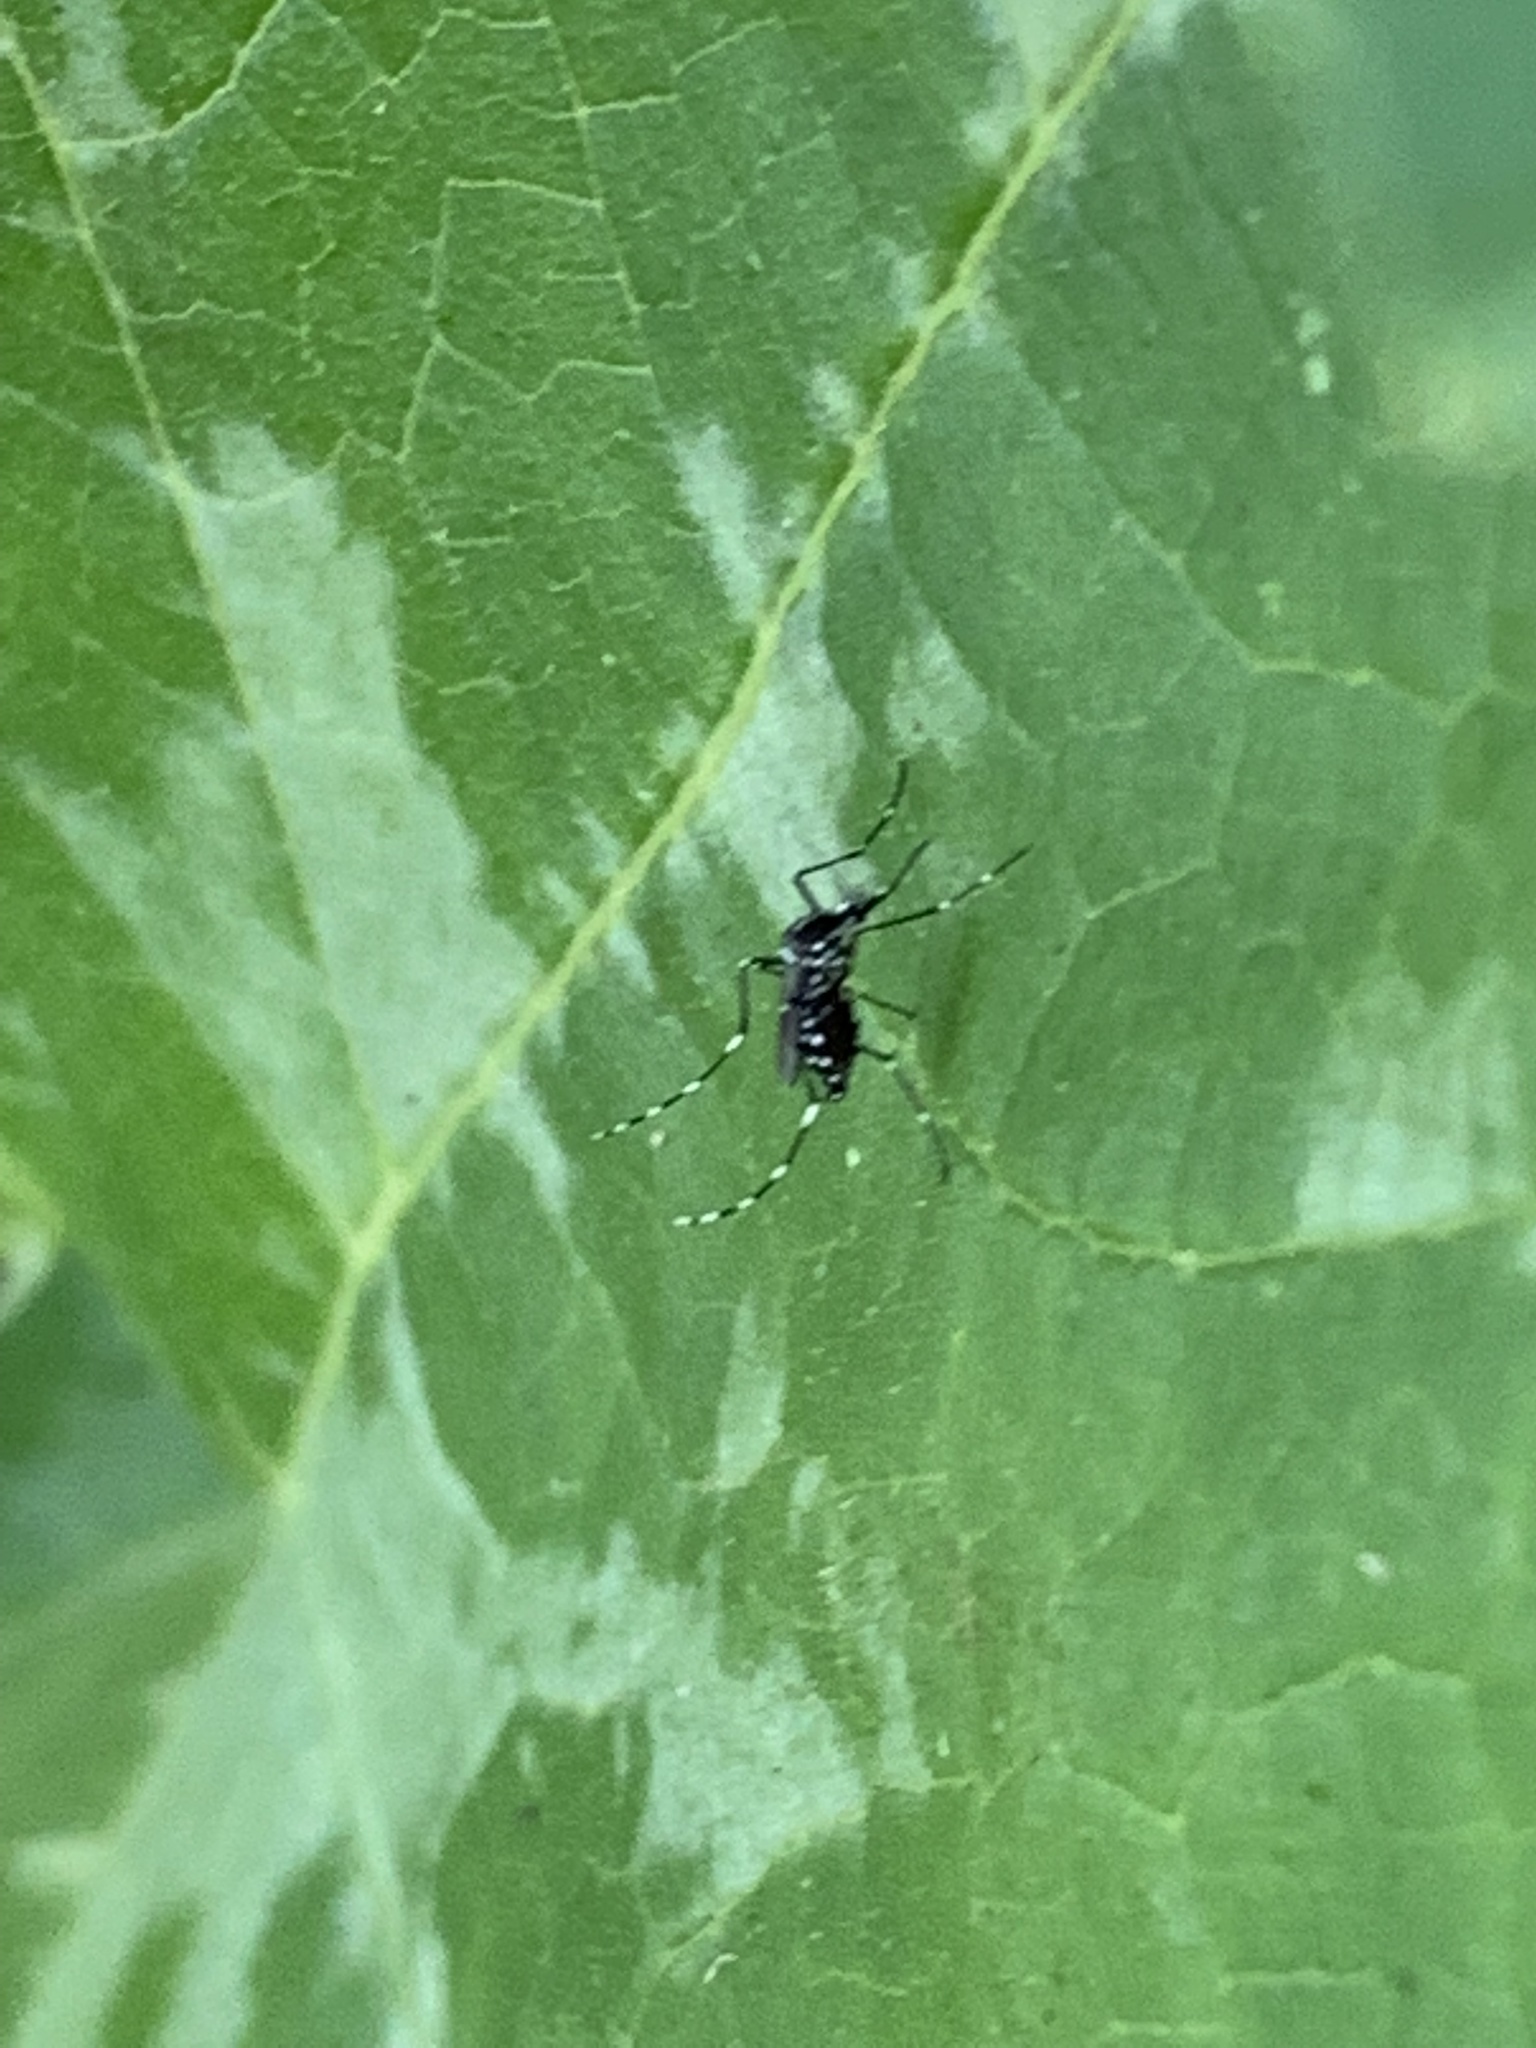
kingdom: Animalia
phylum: Arthropoda
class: Insecta
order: Diptera
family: Culicidae
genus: Aedes
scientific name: Aedes albopictus
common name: Tiger mosquito
